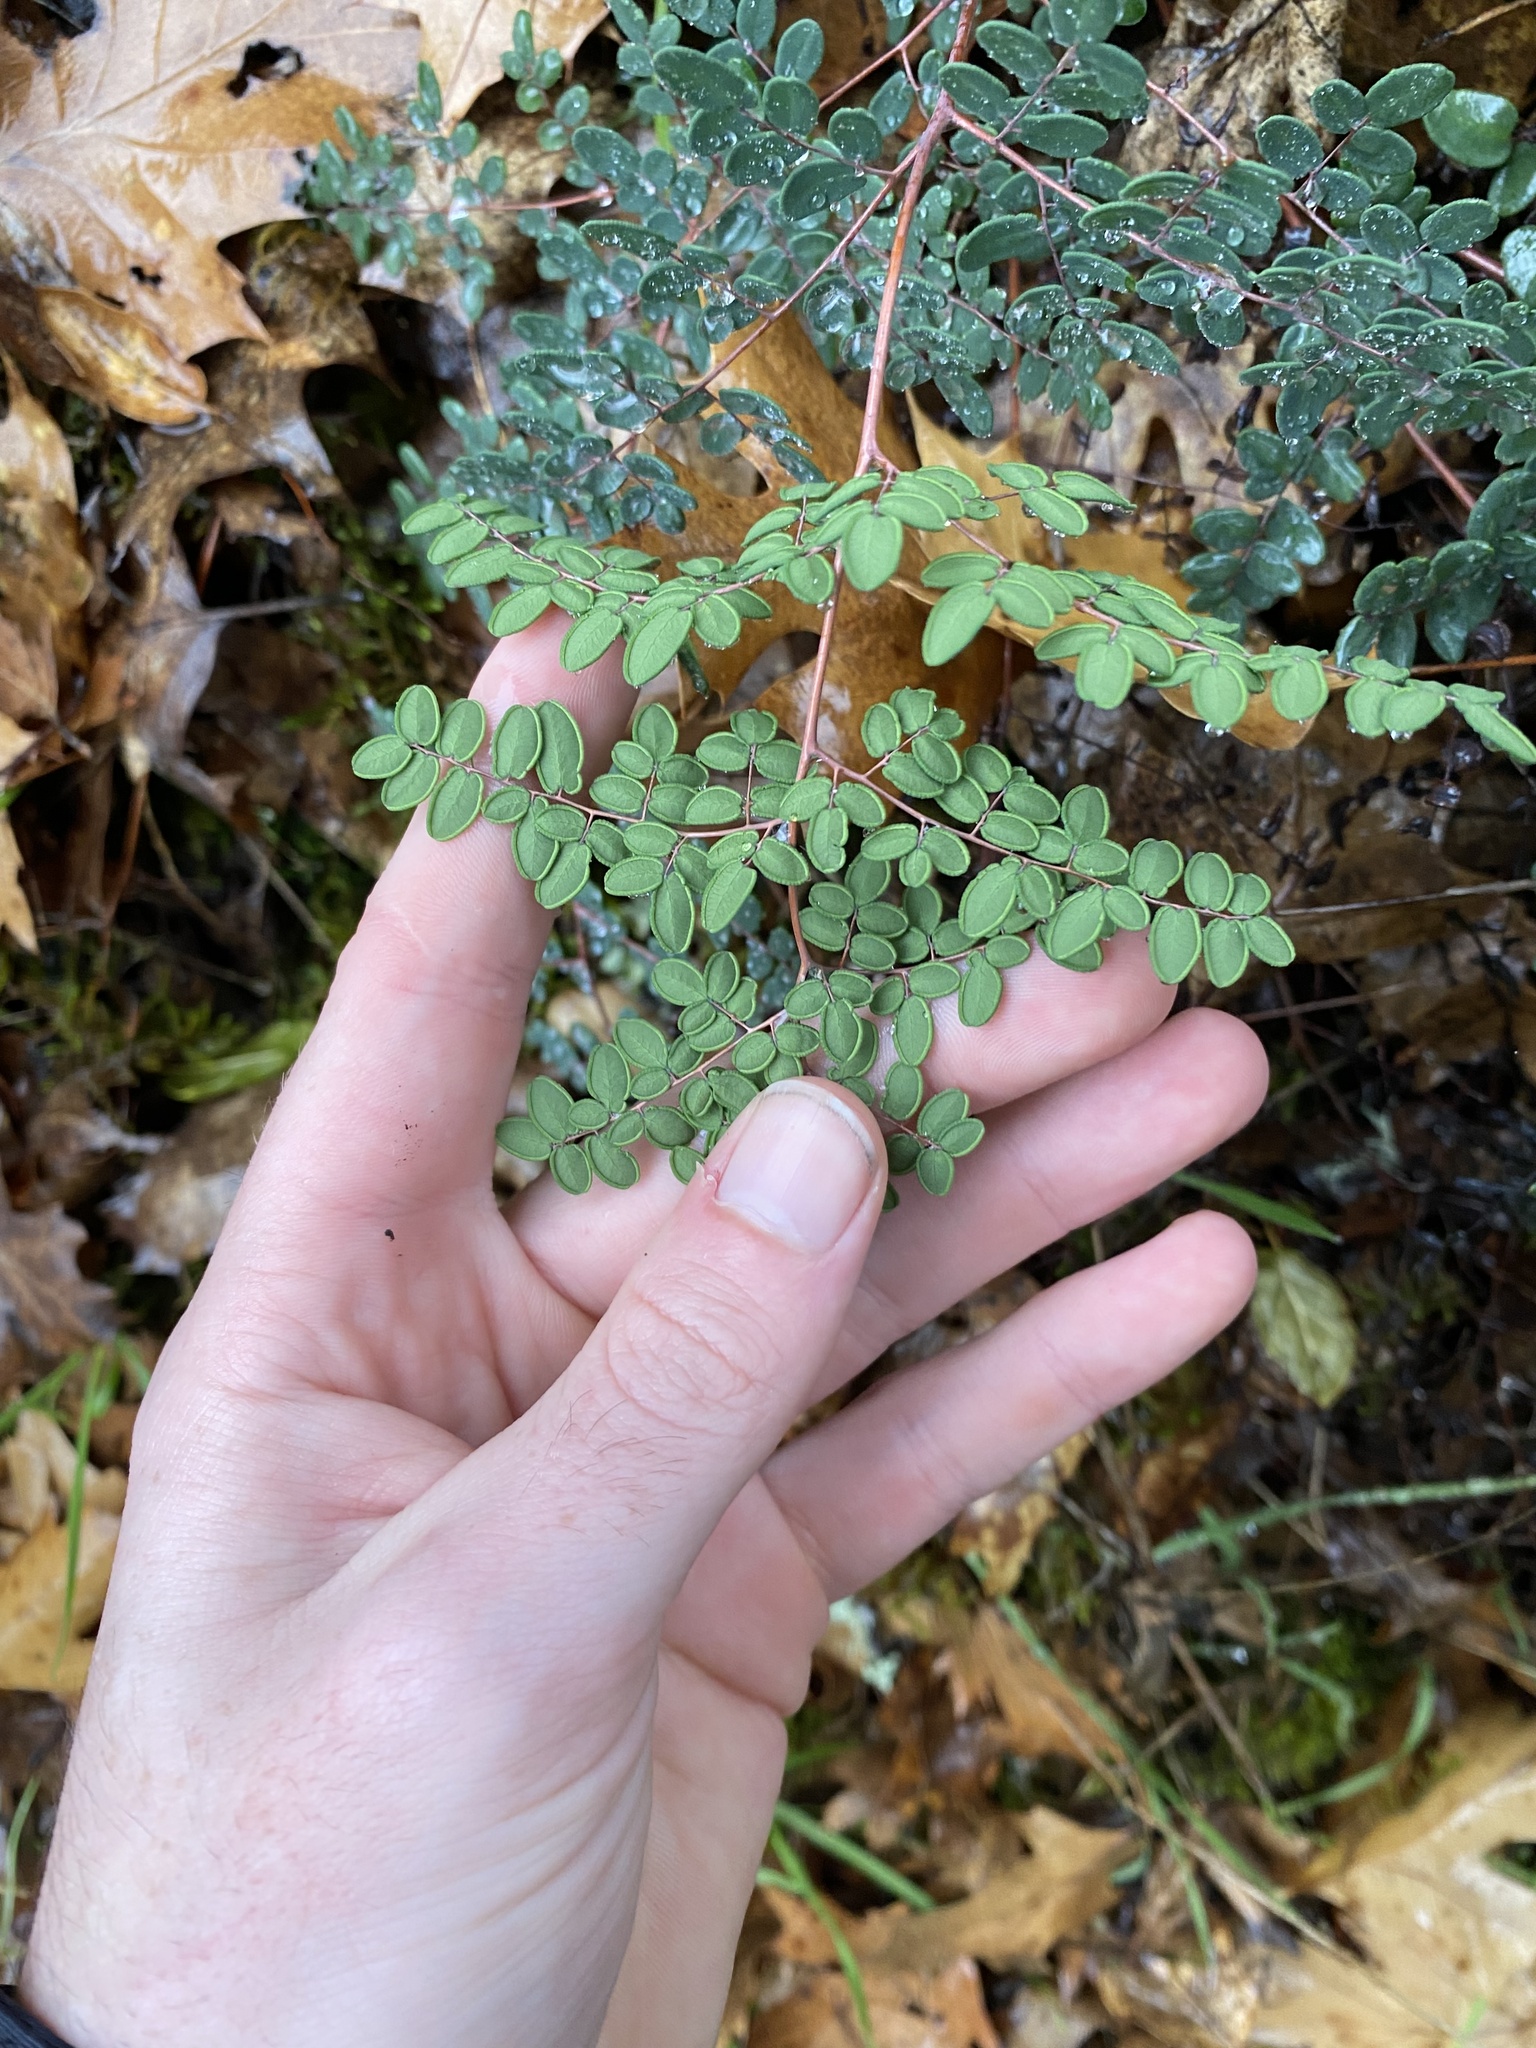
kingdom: Plantae
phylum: Tracheophyta
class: Polypodiopsida
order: Polypodiales
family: Pteridaceae
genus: Pellaea
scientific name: Pellaea andromedifolia
